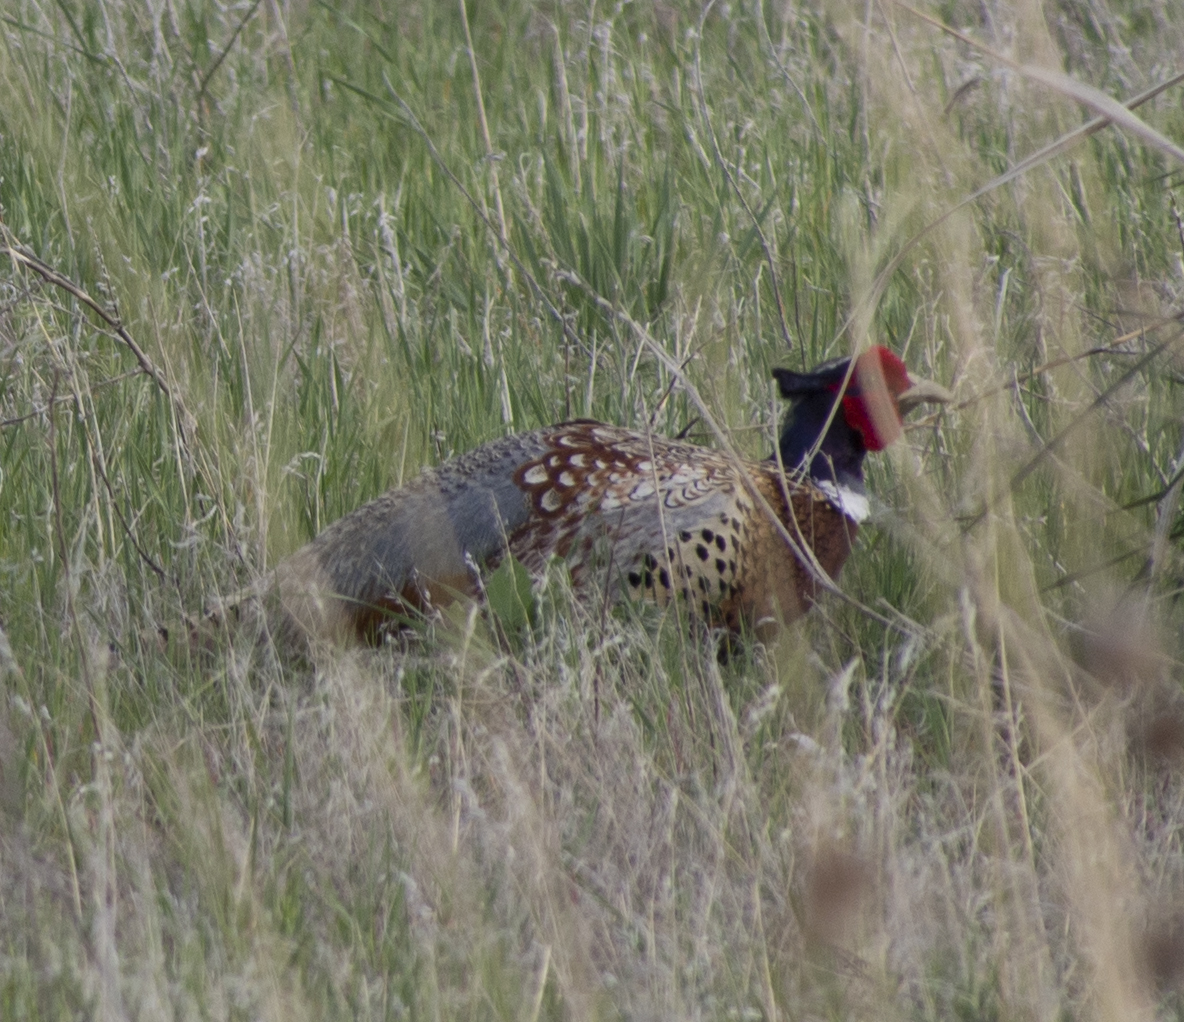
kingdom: Animalia
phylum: Chordata
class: Aves
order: Galliformes
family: Phasianidae
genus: Phasianus
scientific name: Phasianus colchicus
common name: Common pheasant
